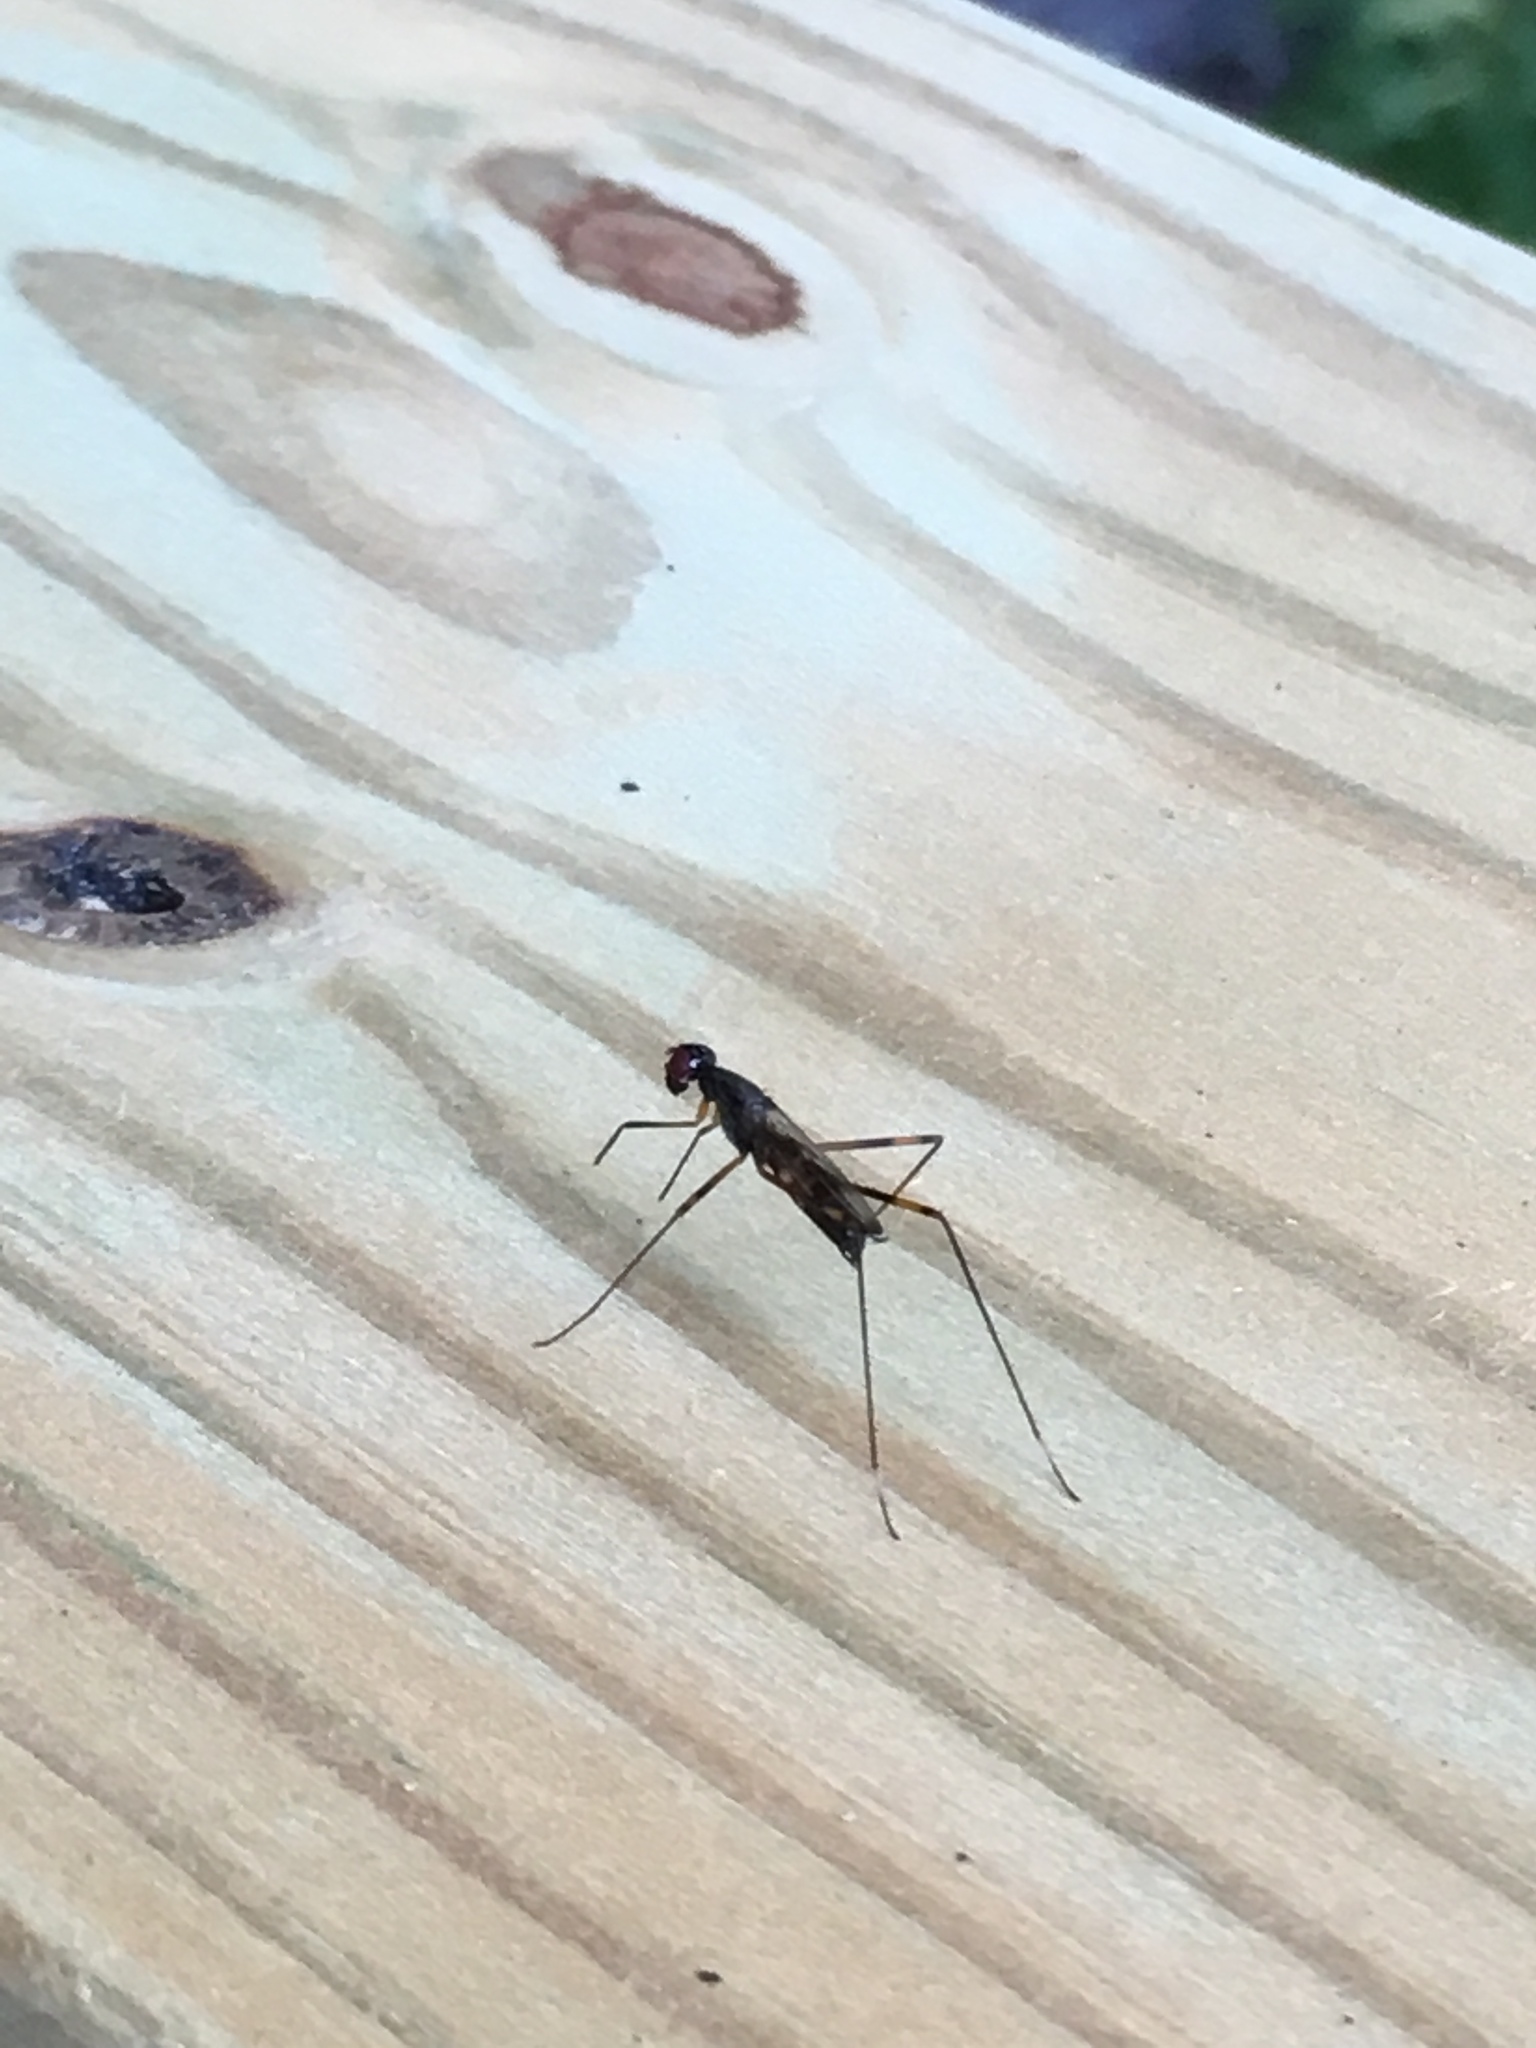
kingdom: Animalia
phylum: Arthropoda
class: Insecta
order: Diptera
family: Micropezidae
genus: Rainieria
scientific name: Rainieria antennaepes
